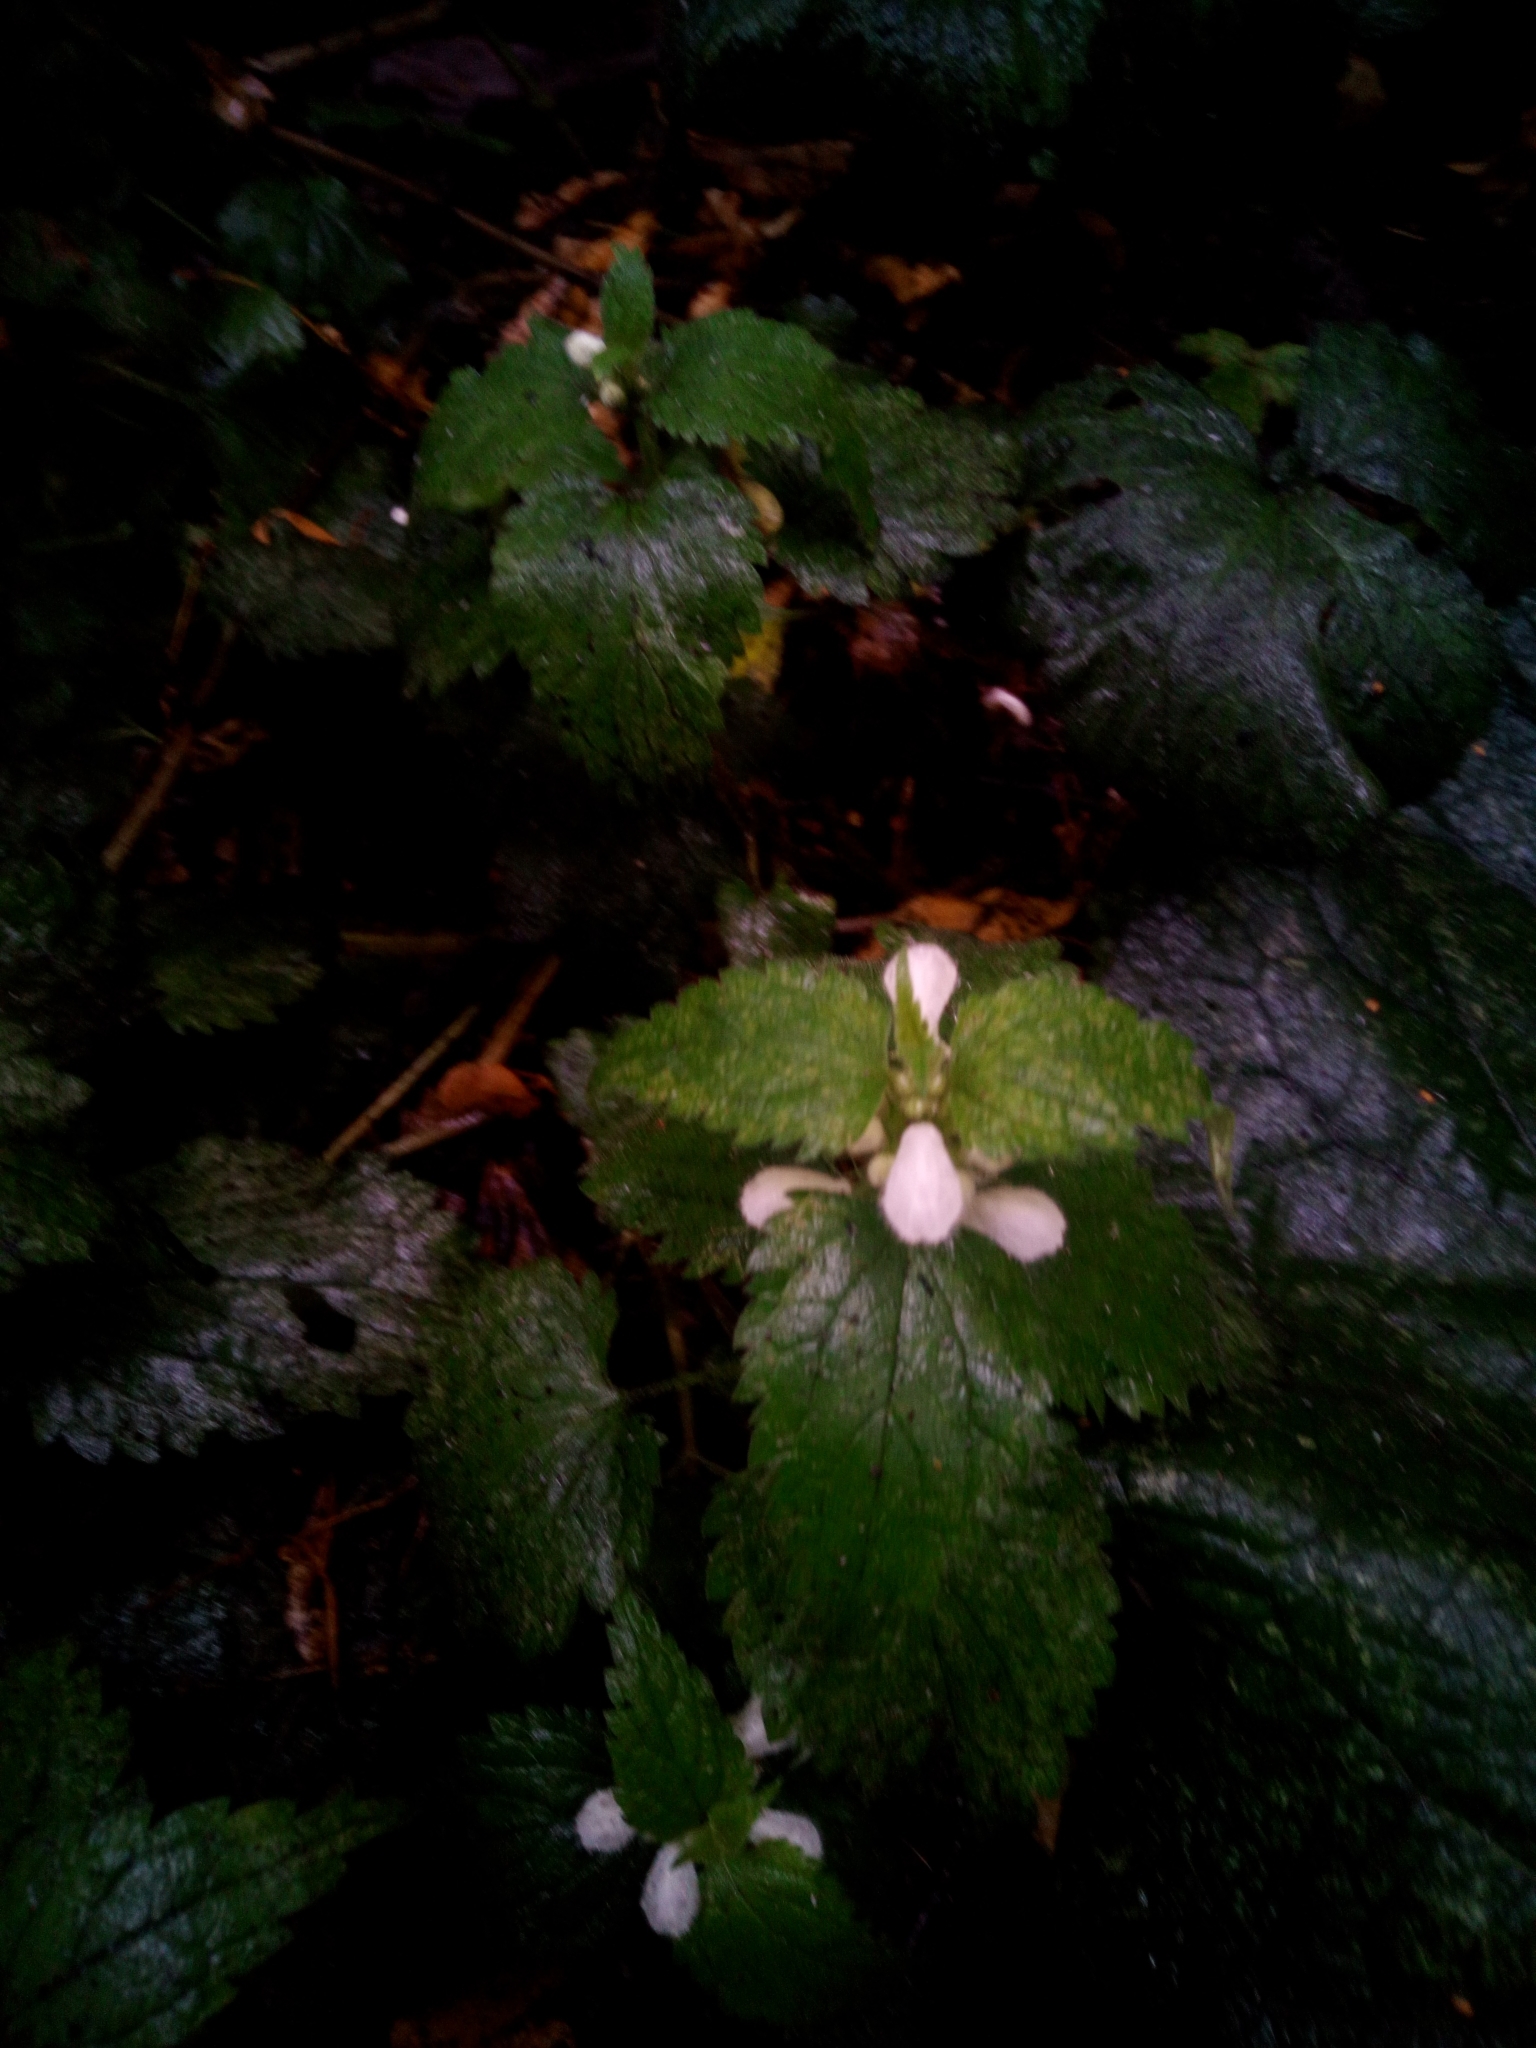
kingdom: Plantae
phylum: Tracheophyta
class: Magnoliopsida
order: Lamiales
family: Lamiaceae
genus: Lamium
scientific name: Lamium album
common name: White dead-nettle
